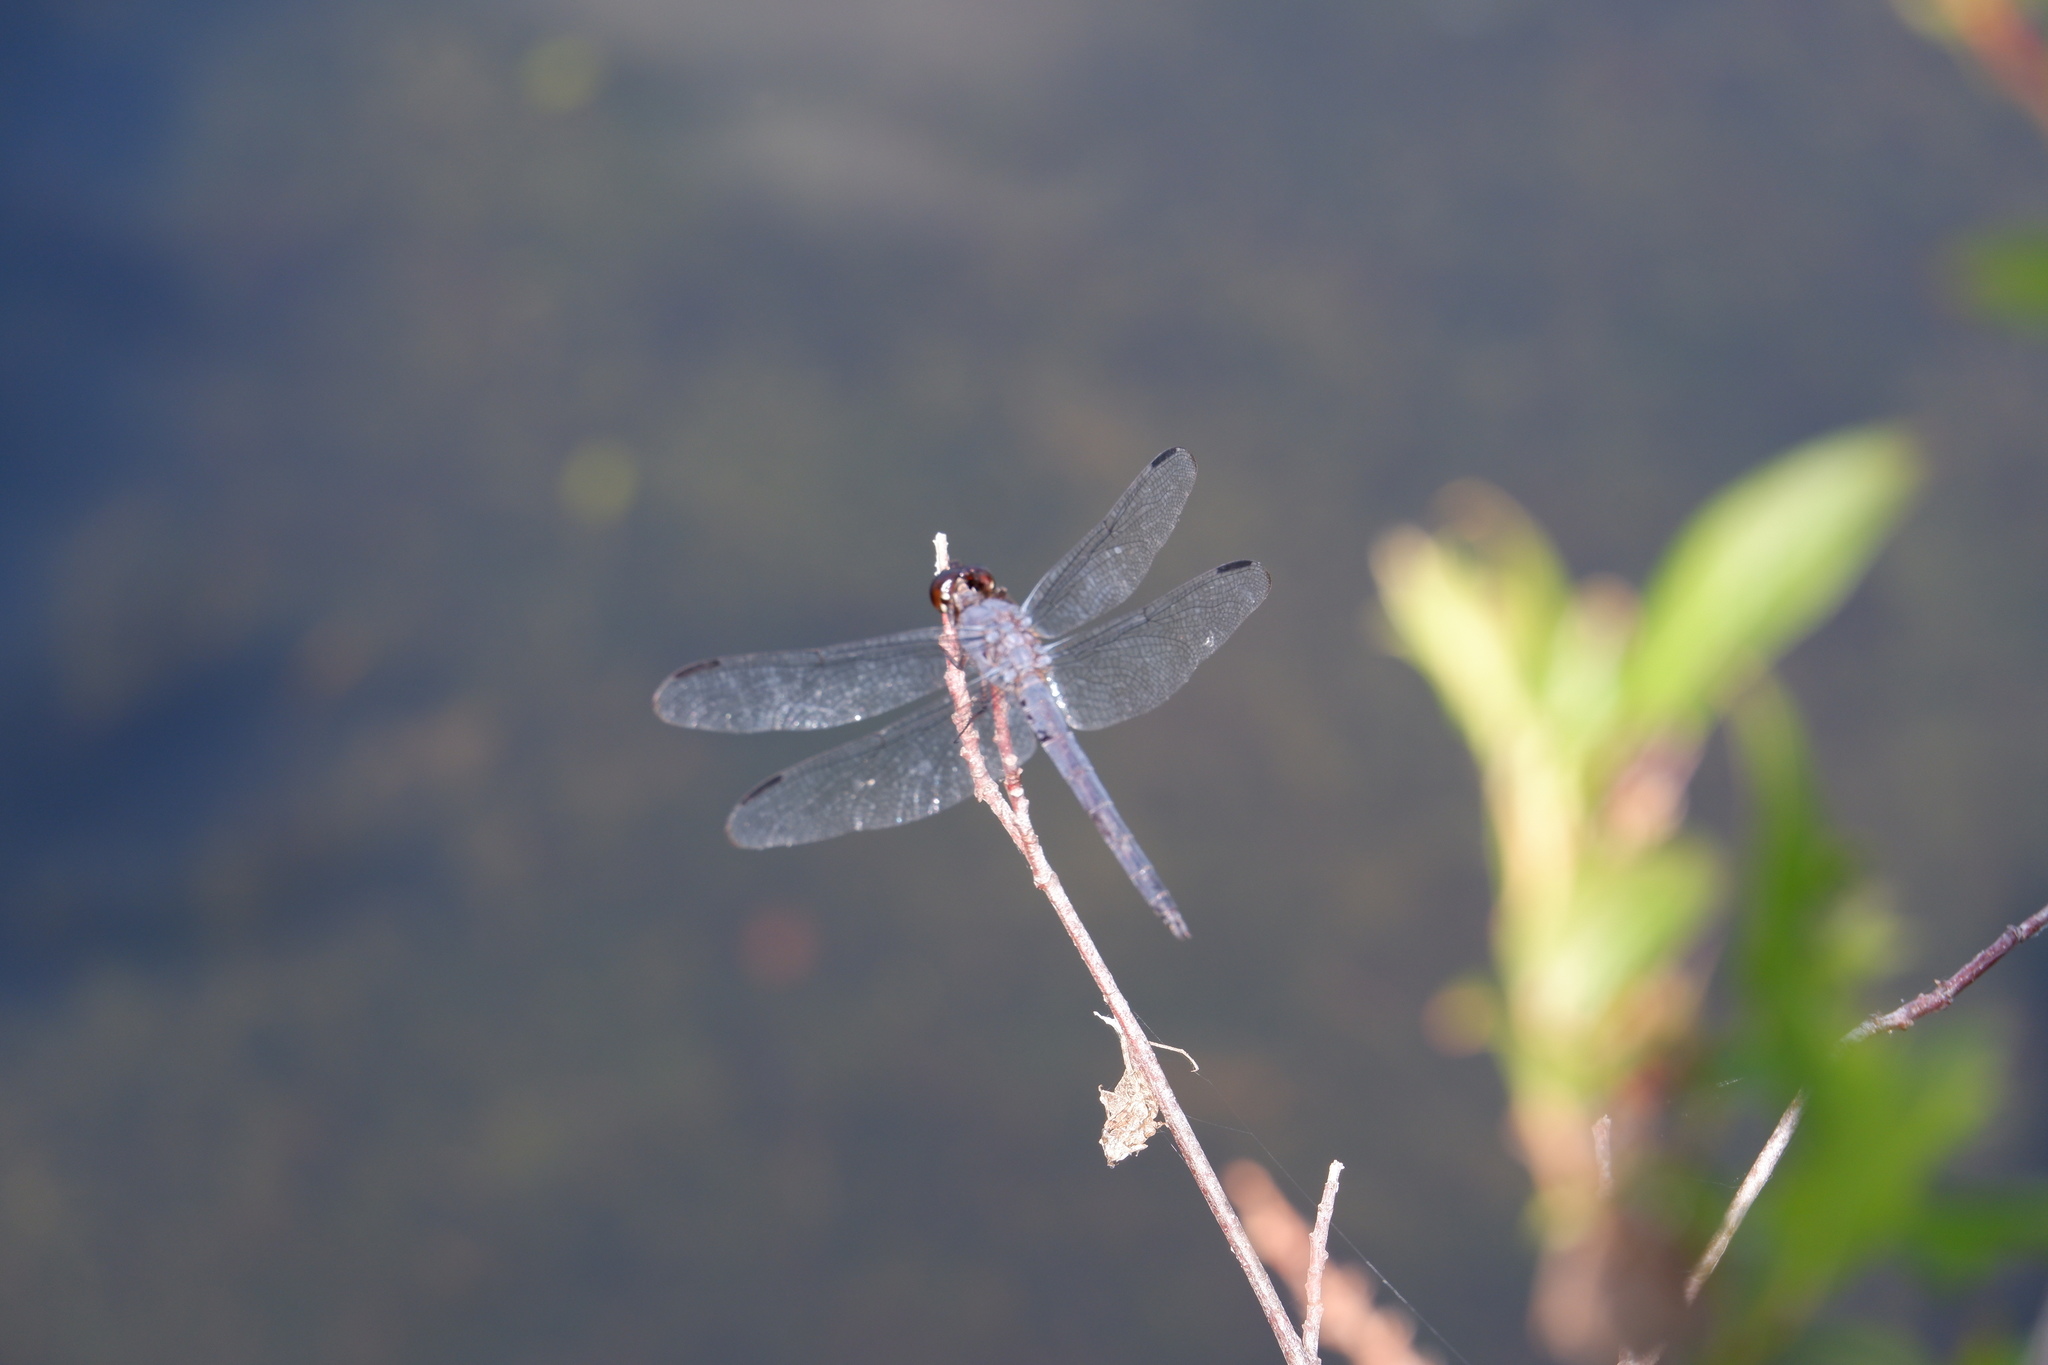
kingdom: Animalia
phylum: Arthropoda
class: Insecta
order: Odonata
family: Libellulidae
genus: Libellula
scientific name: Libellula incesta
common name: Slaty skimmer
